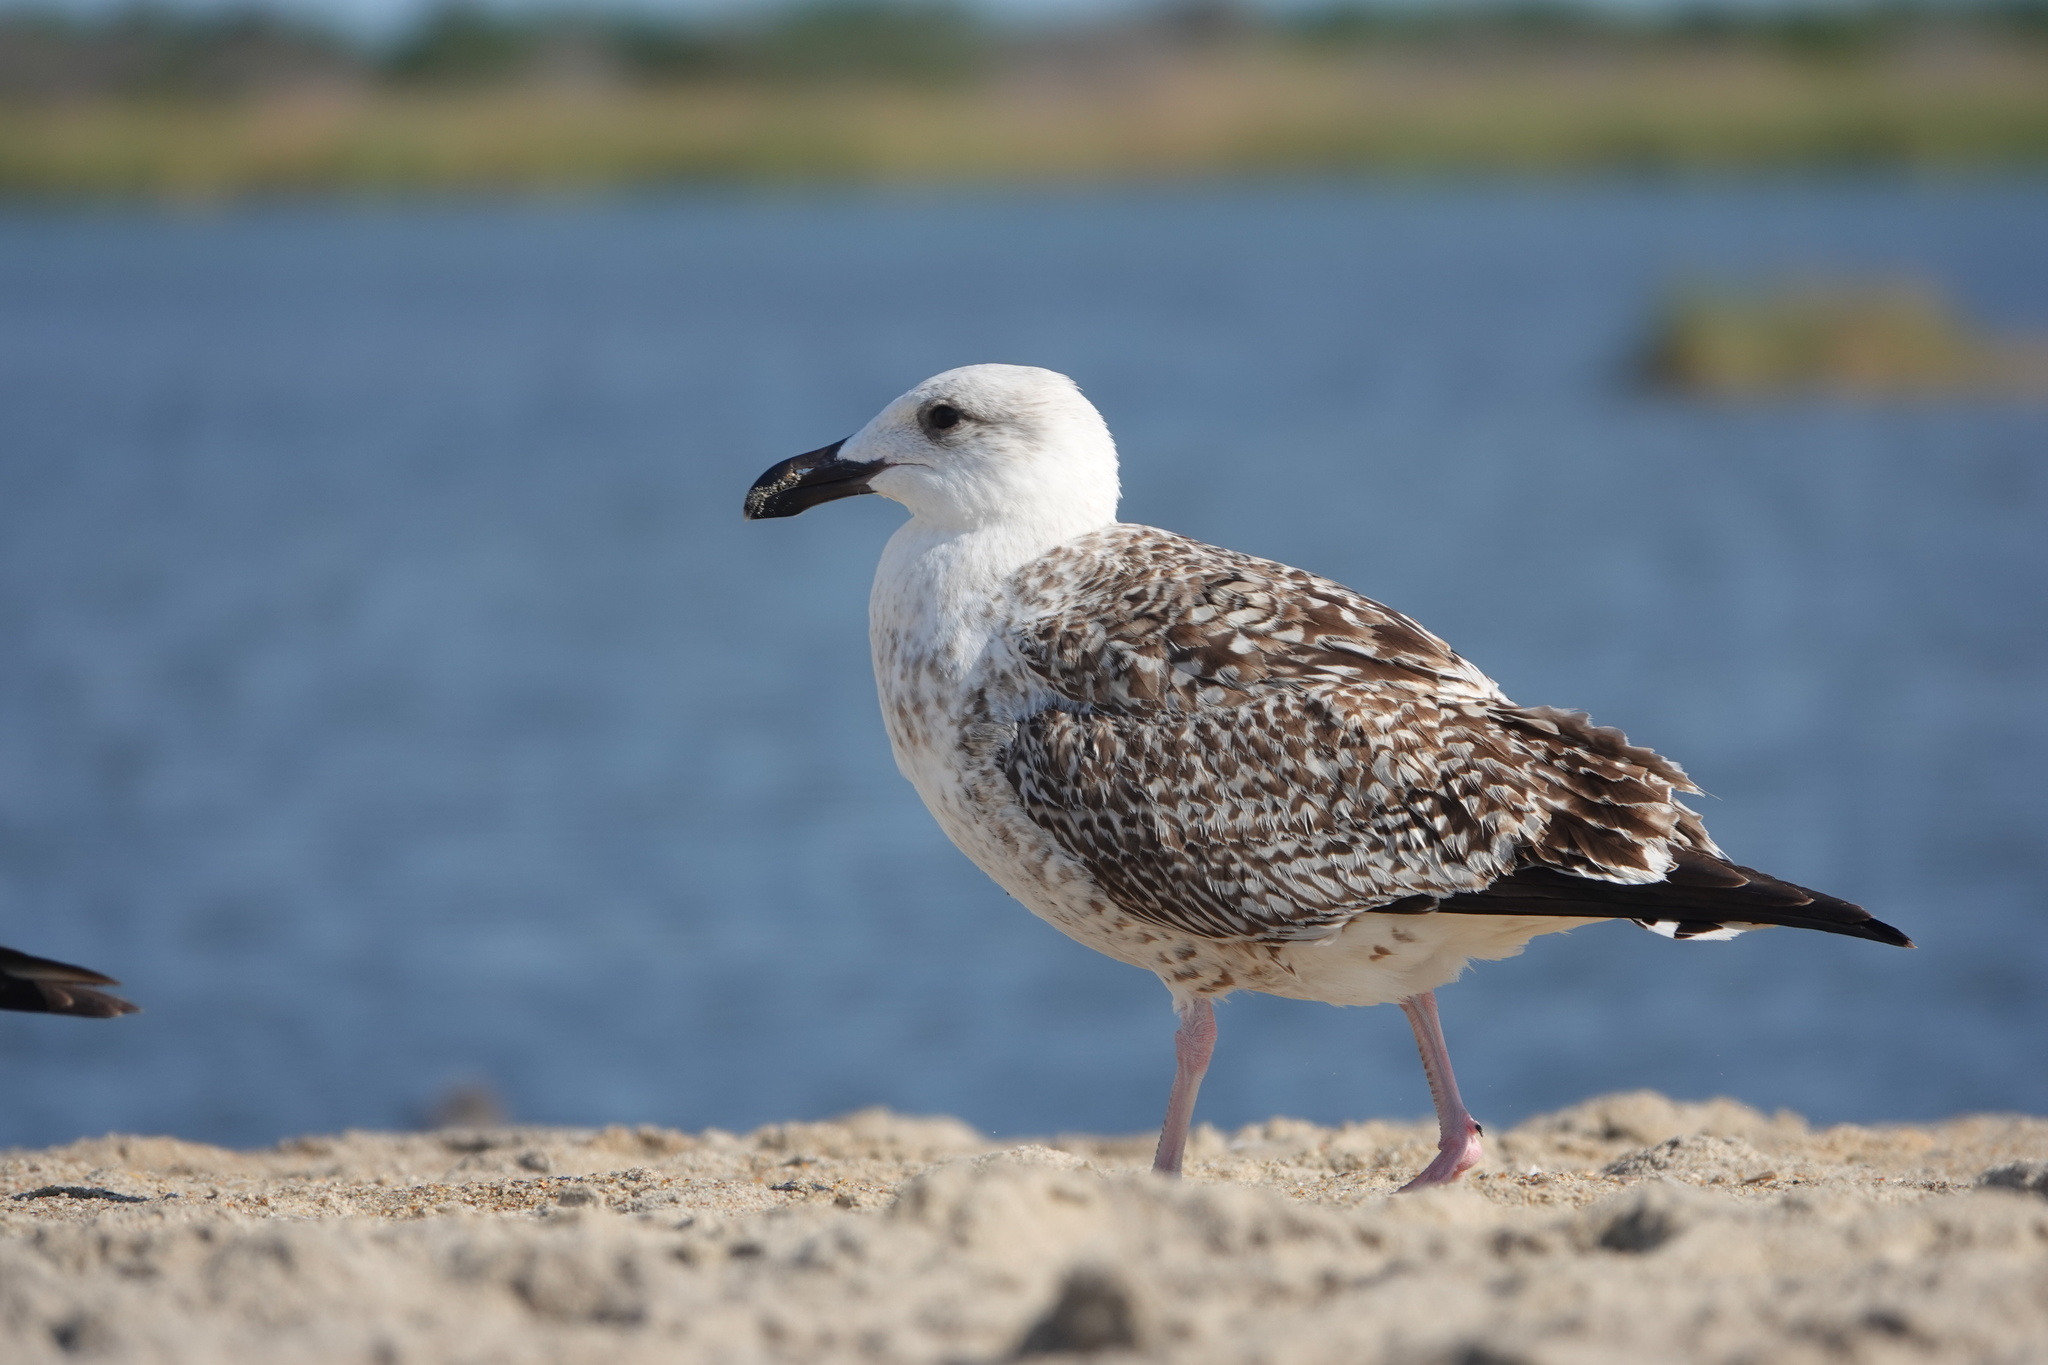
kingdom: Animalia
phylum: Chordata
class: Aves
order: Charadriiformes
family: Laridae
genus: Larus
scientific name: Larus marinus
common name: Great black-backed gull
